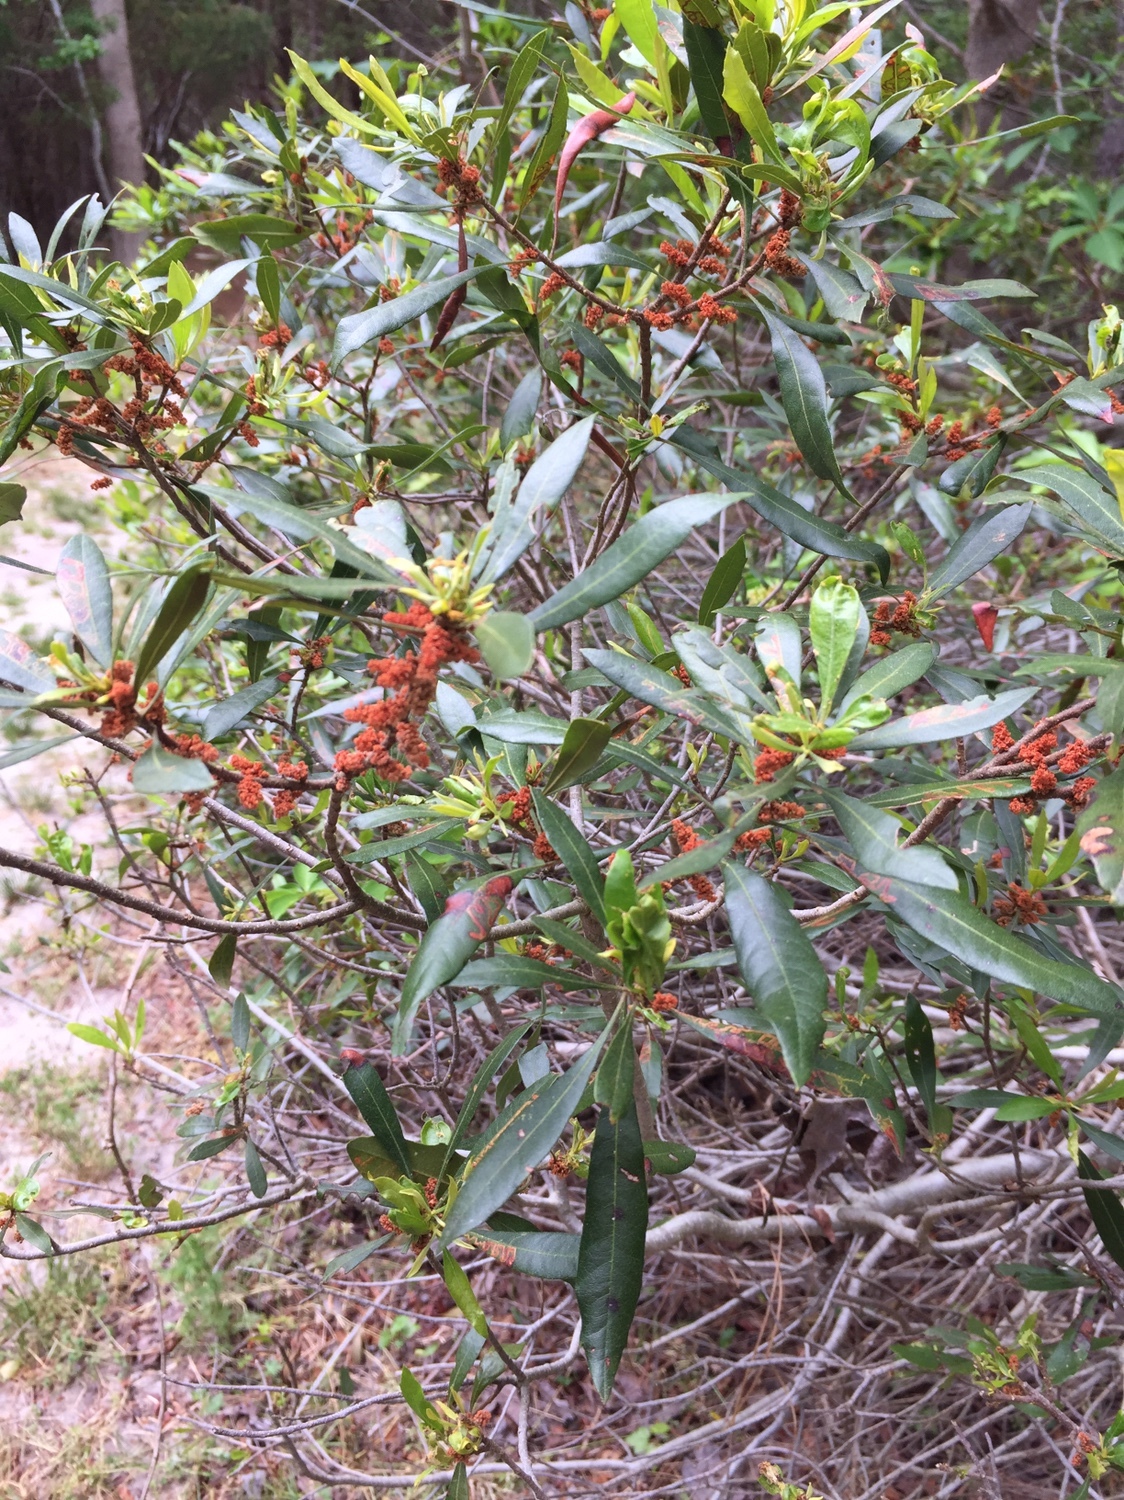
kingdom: Plantae
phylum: Tracheophyta
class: Magnoliopsida
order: Fagales
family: Myricaceae
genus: Morella
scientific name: Morella cerifera
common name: Wax myrtle
